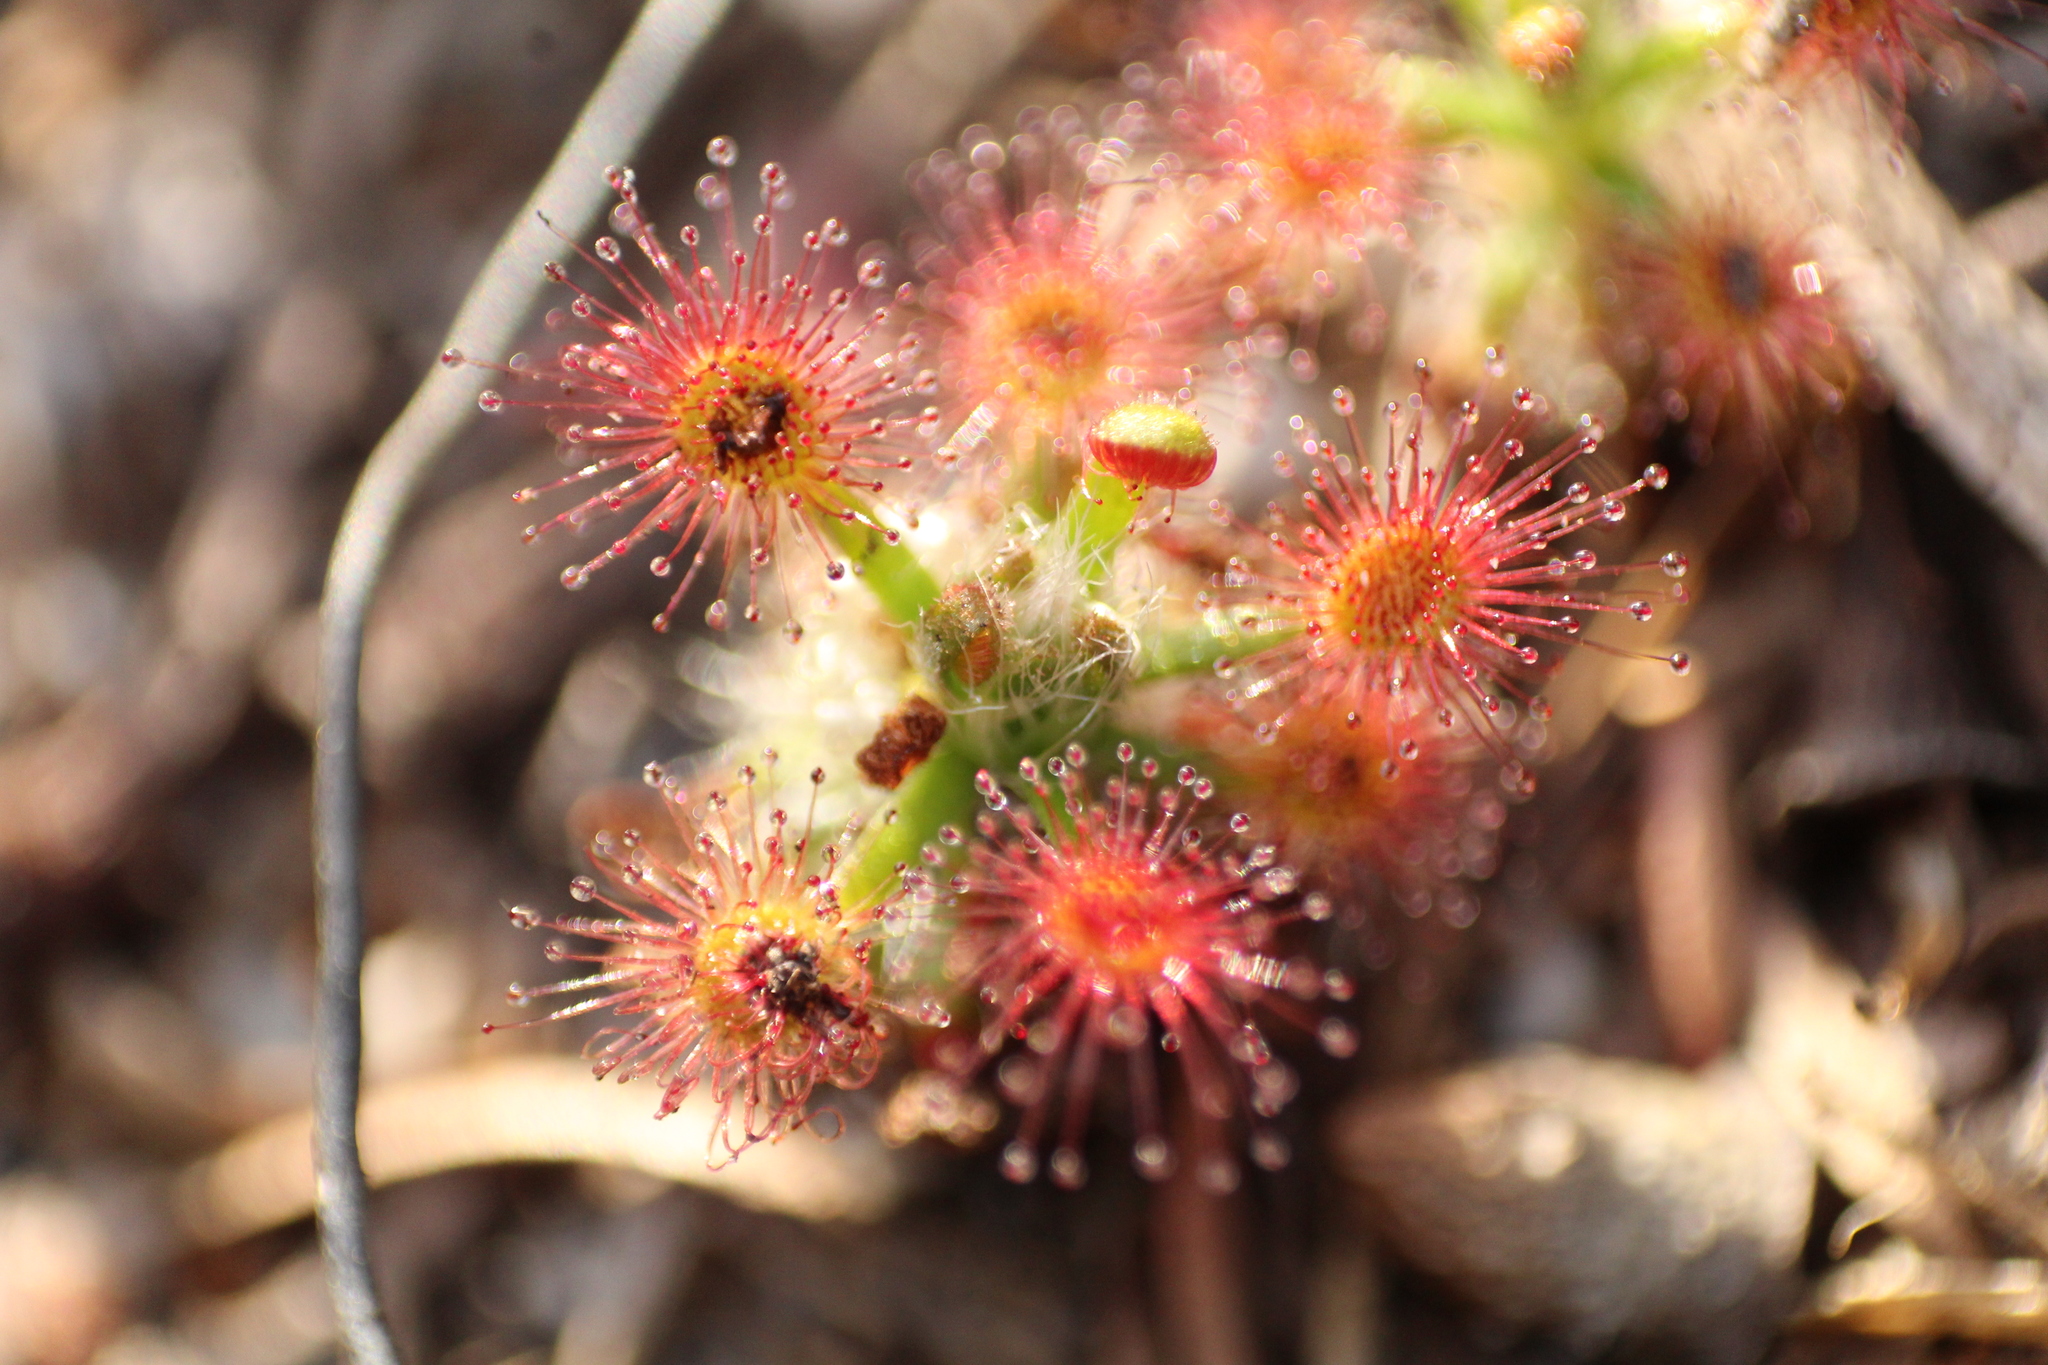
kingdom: Plantae
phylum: Tracheophyta
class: Magnoliopsida
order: Caryophyllales
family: Droseraceae
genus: Drosera
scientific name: Drosera paleacea
